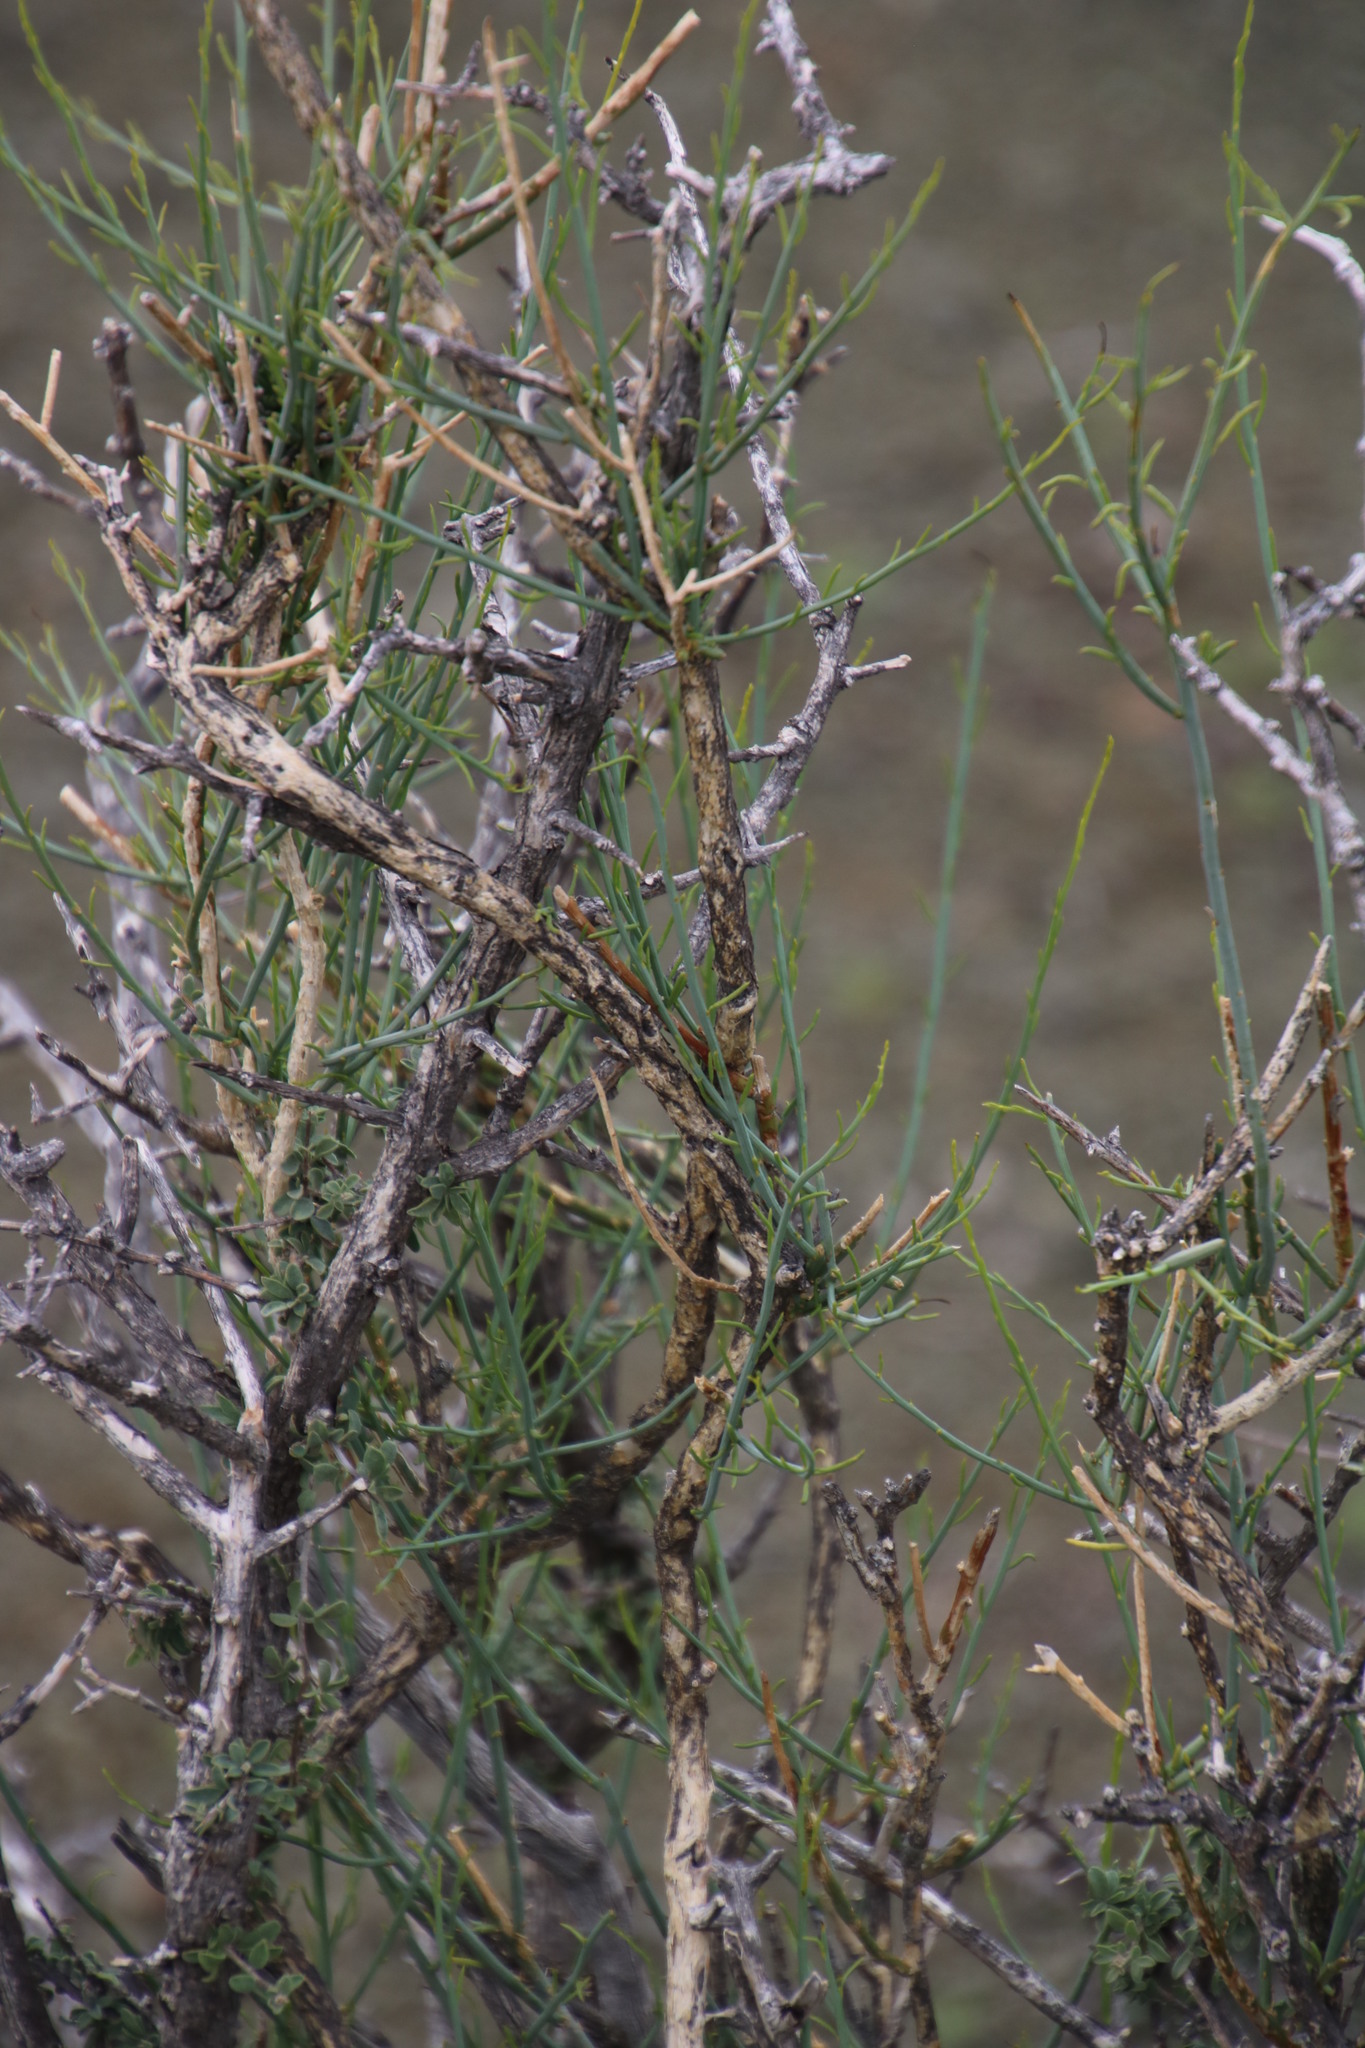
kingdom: Plantae
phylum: Tracheophyta
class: Magnoliopsida
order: Santalales
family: Thesiaceae
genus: Lacomucinaea
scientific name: Lacomucinaea lineata
